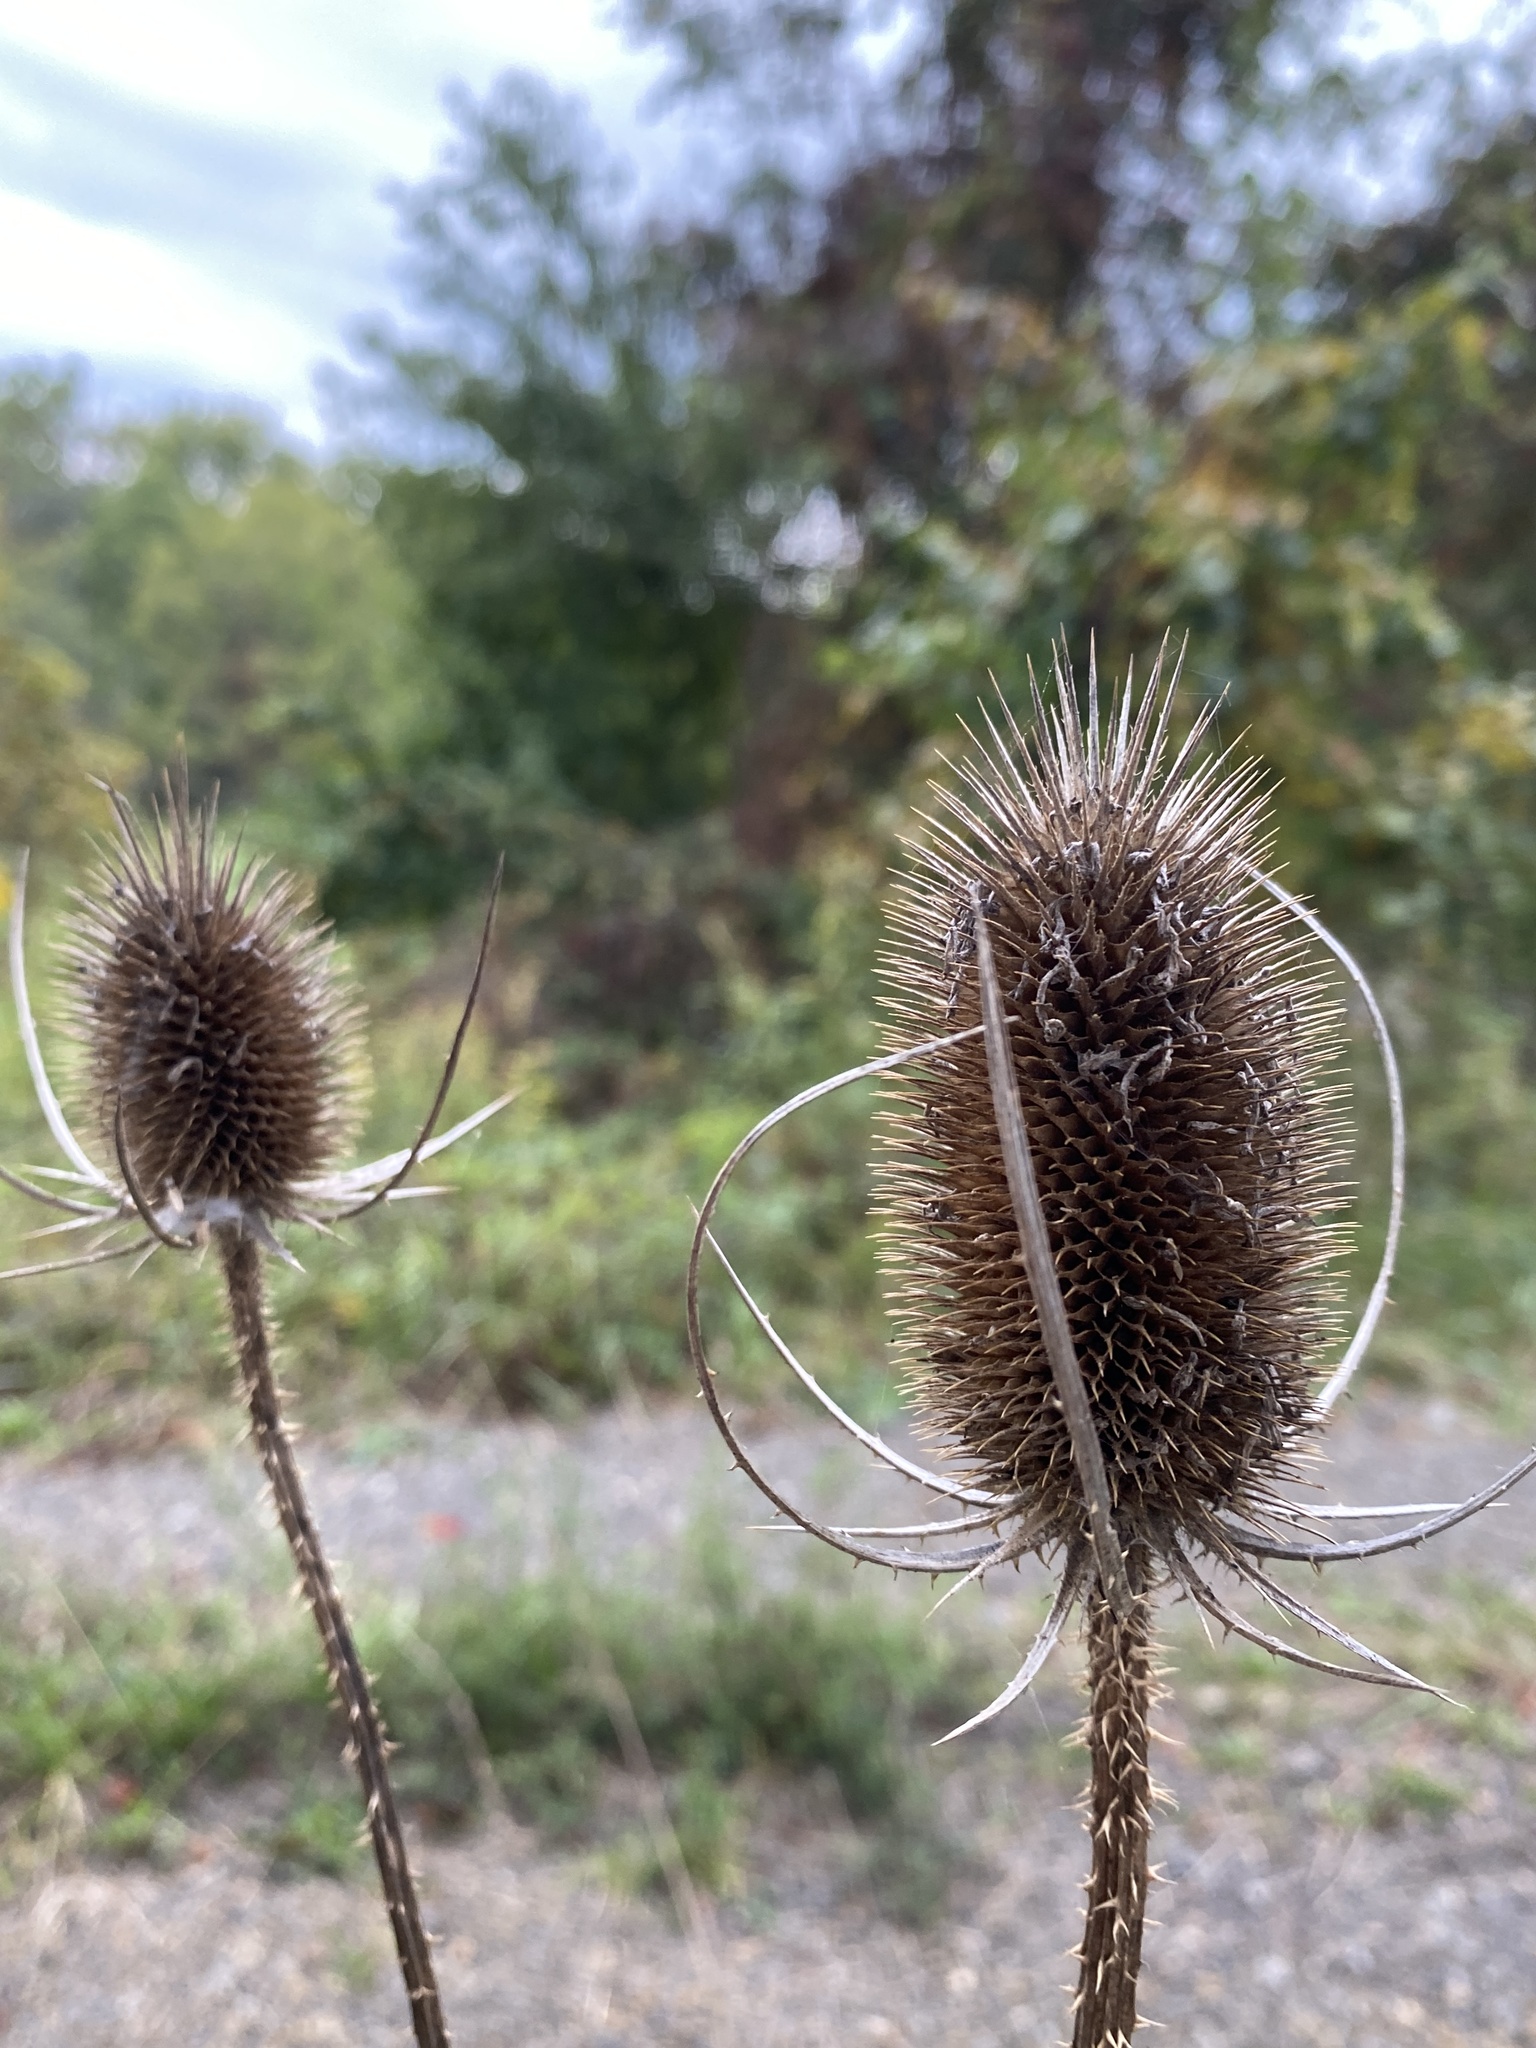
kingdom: Plantae
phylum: Tracheophyta
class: Magnoliopsida
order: Dipsacales
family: Caprifoliaceae
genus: Dipsacus
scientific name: Dipsacus fullonum
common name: Teasel
